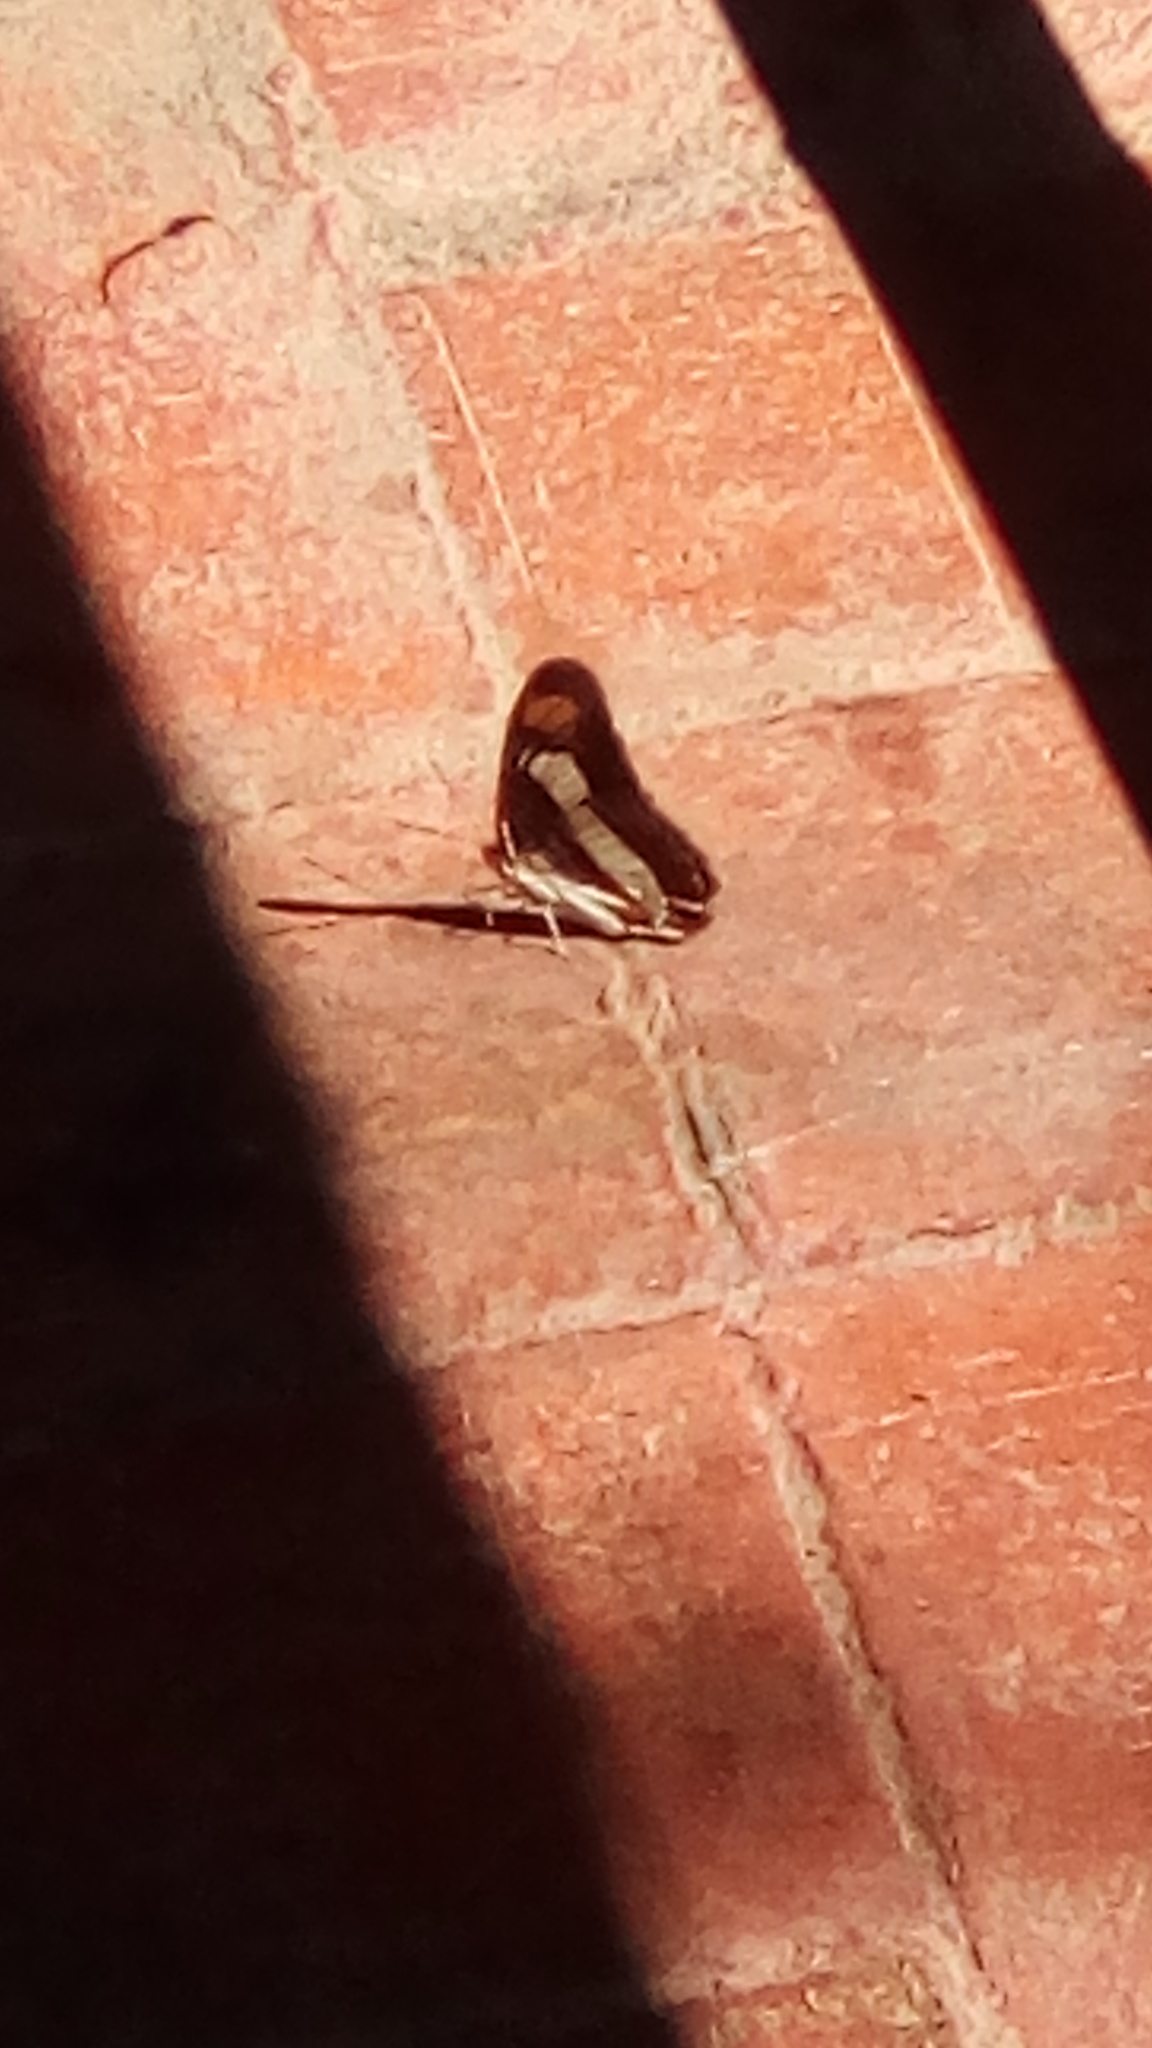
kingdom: Animalia
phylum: Arthropoda
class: Insecta
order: Lepidoptera
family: Nymphalidae
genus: Limenitis
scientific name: Limenitis Adelpha basiloides
